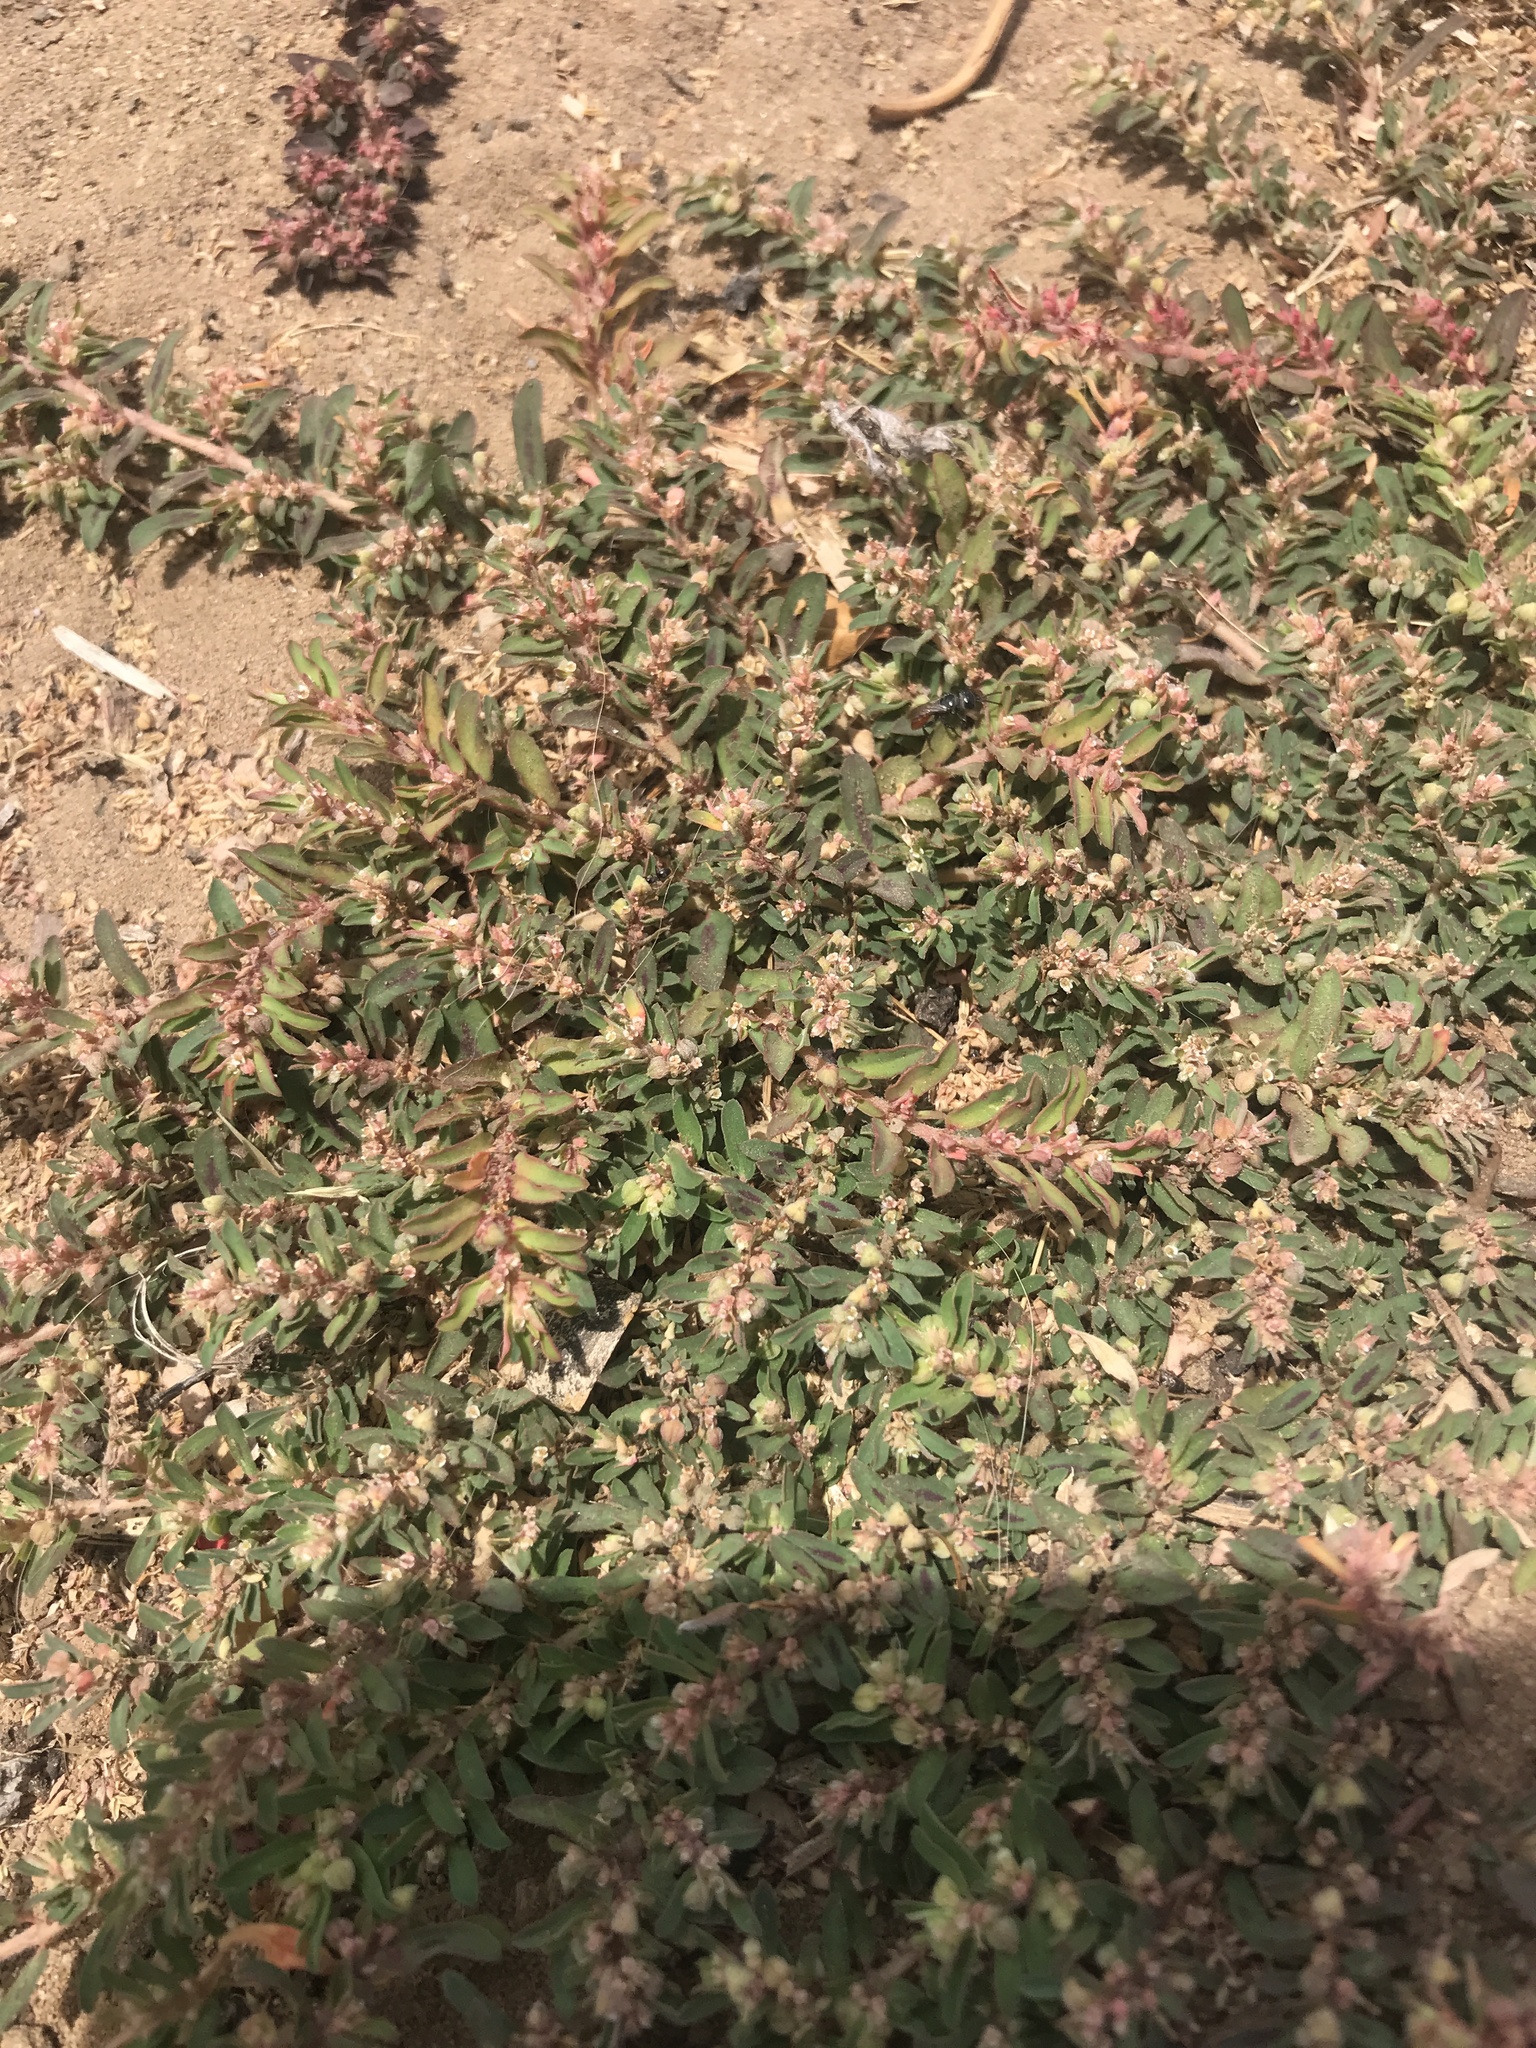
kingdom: Plantae
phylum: Tracheophyta
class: Magnoliopsida
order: Malpighiales
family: Euphorbiaceae
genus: Euphorbia
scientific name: Euphorbia maculata
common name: Spotted spurge
